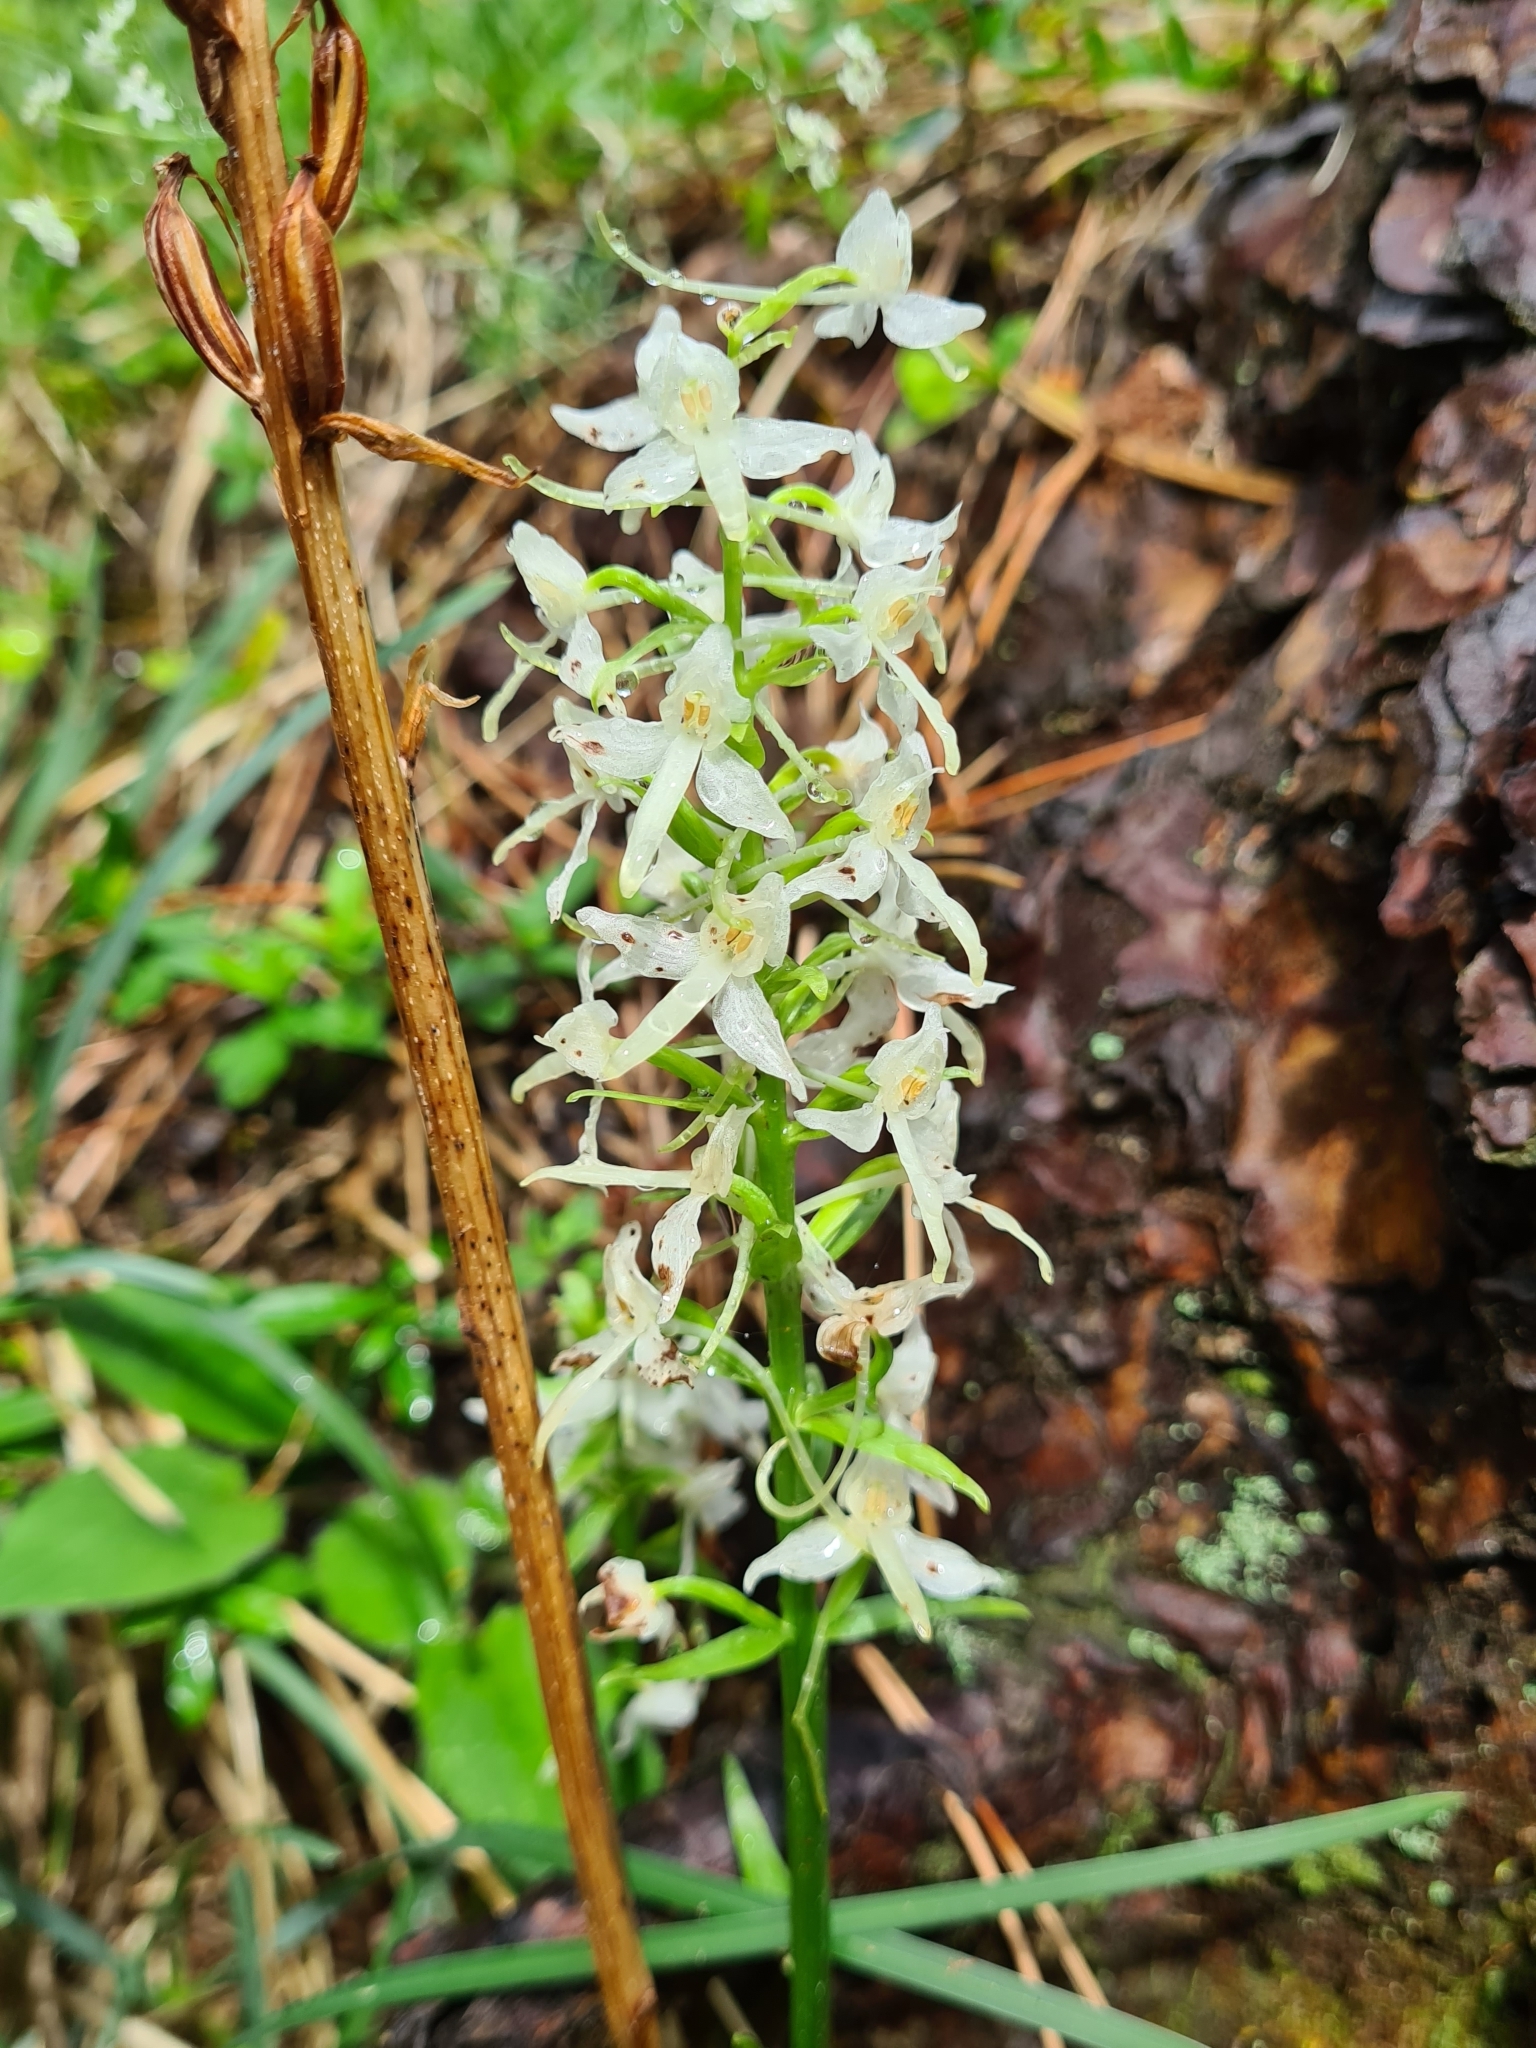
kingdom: Plantae
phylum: Tracheophyta
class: Liliopsida
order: Asparagales
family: Orchidaceae
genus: Platanthera
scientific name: Platanthera bifolia
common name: Lesser butterfly-orchid
